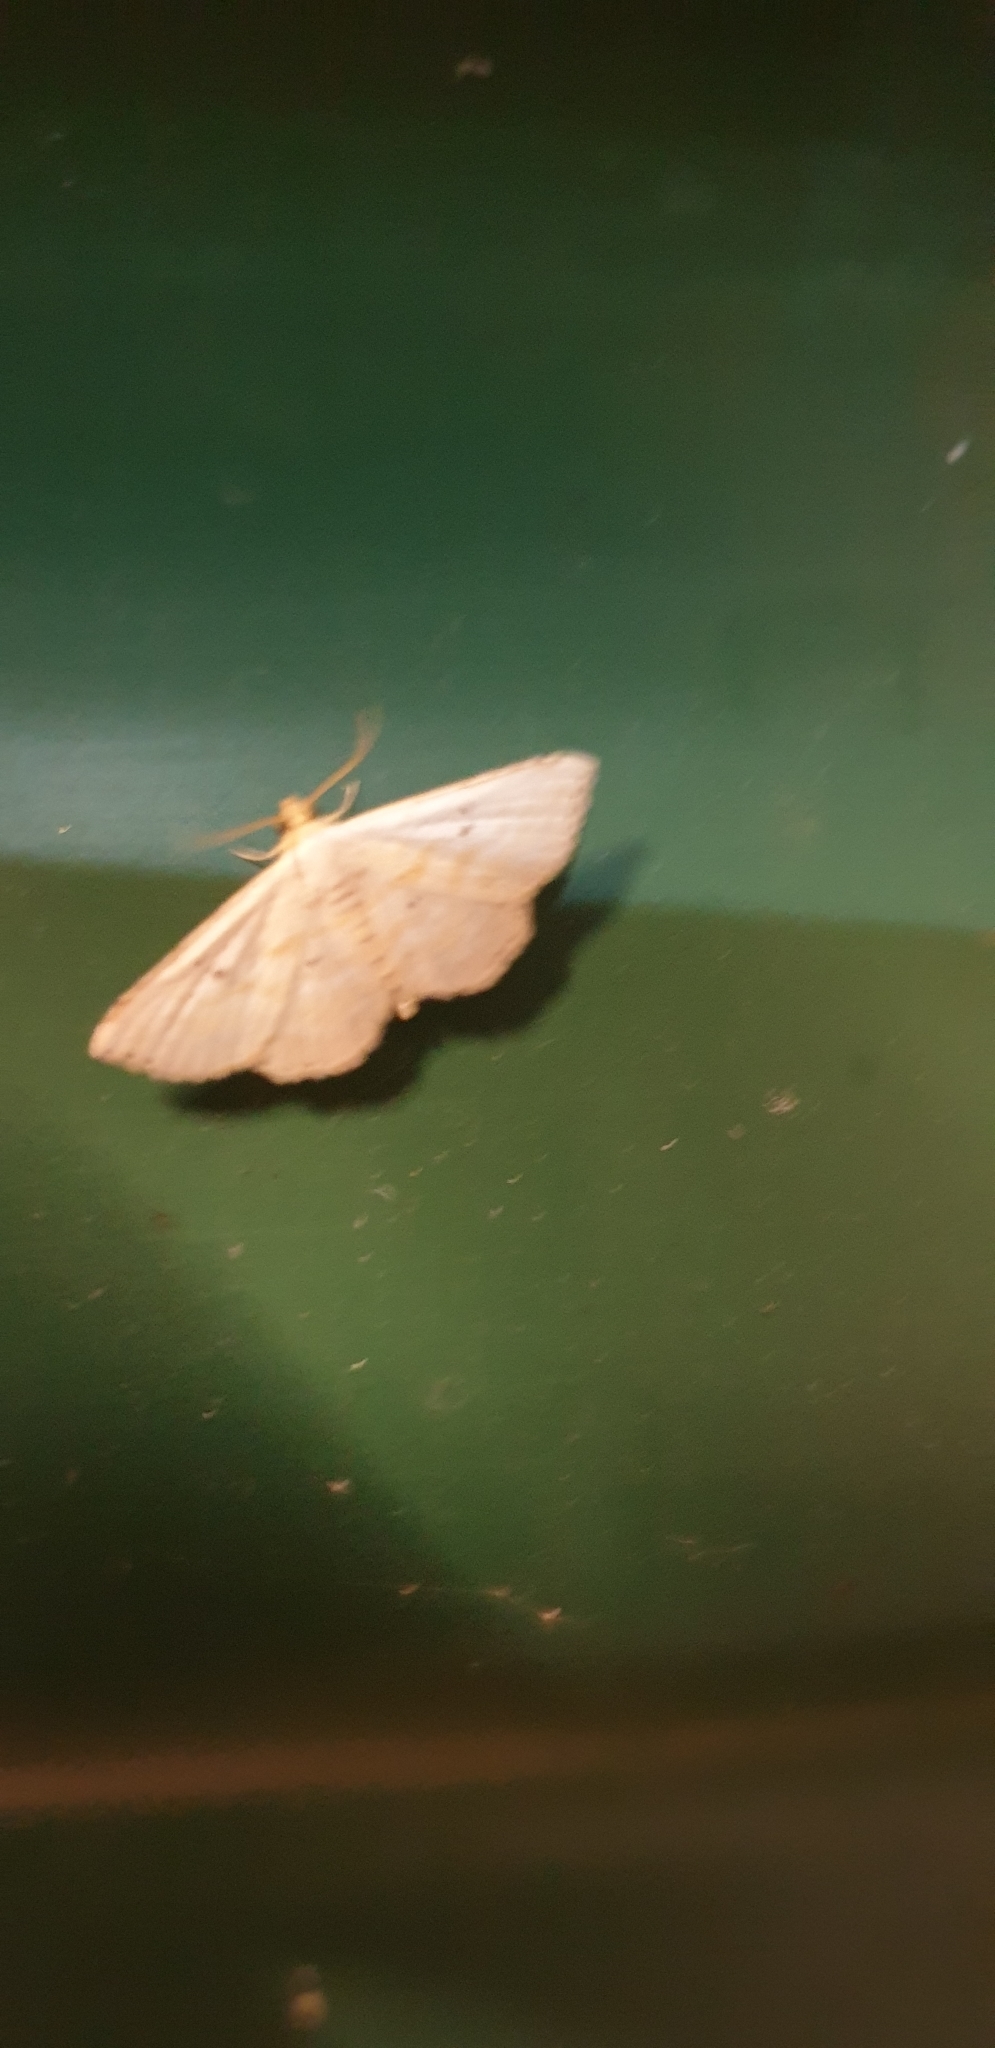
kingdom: Animalia
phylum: Arthropoda
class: Insecta
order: Lepidoptera
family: Noctuidae
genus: Oruza
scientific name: Oruza cariosa
